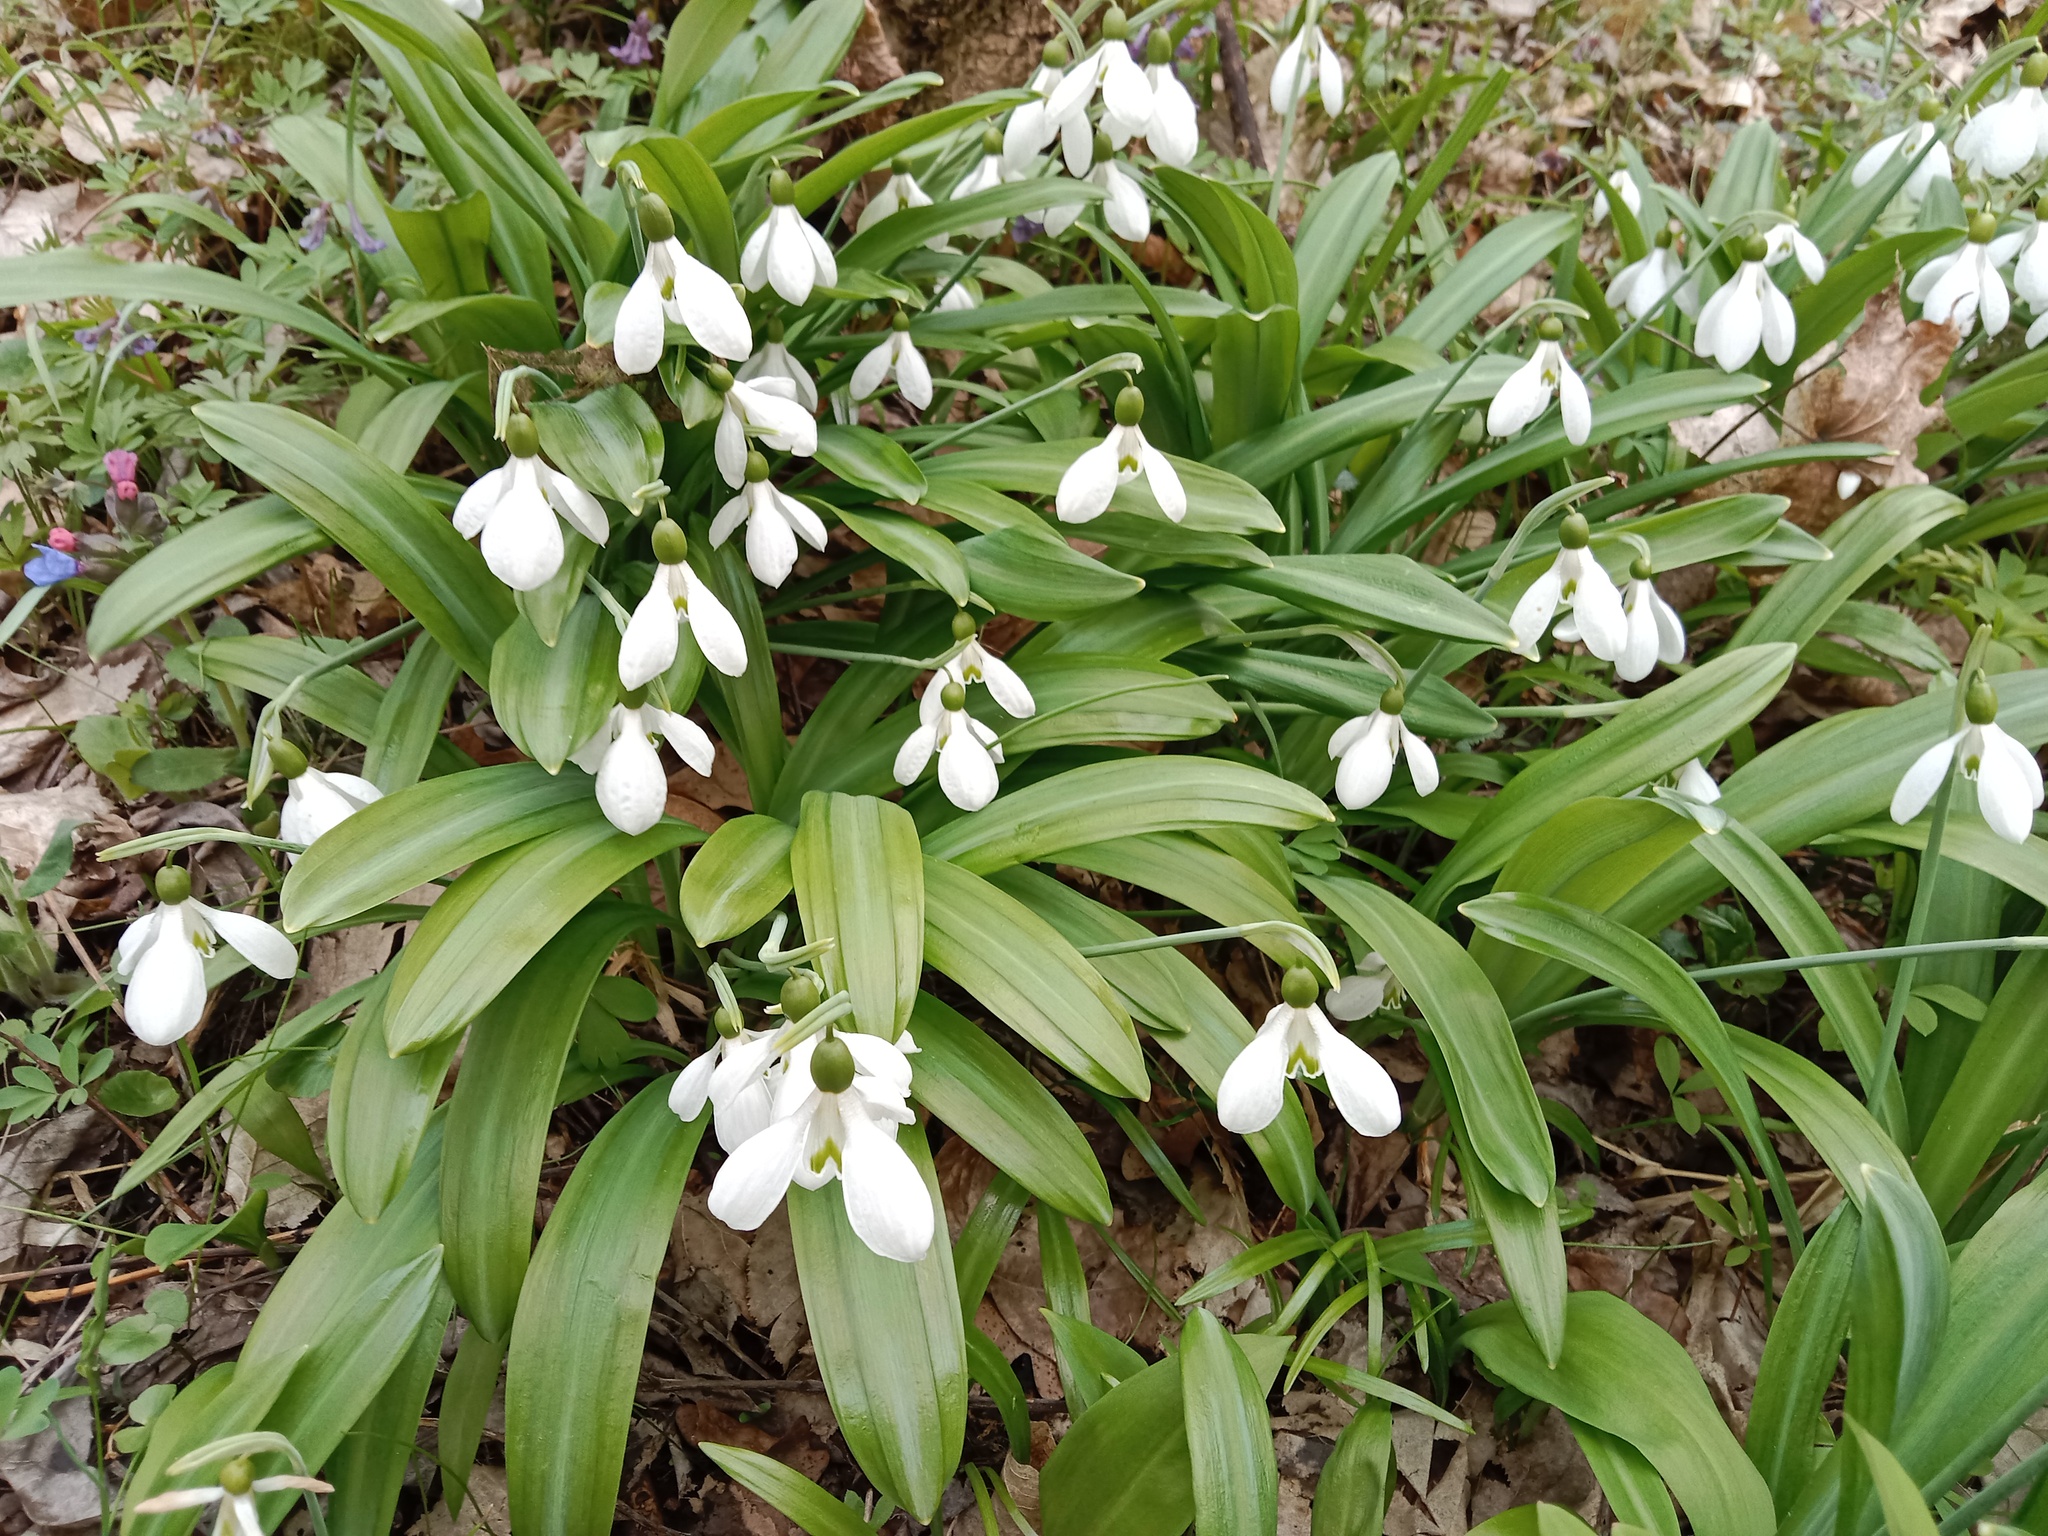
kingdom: Plantae
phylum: Tracheophyta
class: Liliopsida
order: Asparagales
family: Amaryllidaceae
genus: Galanthus
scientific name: Galanthus plicatus
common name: Pleated snowdrop
